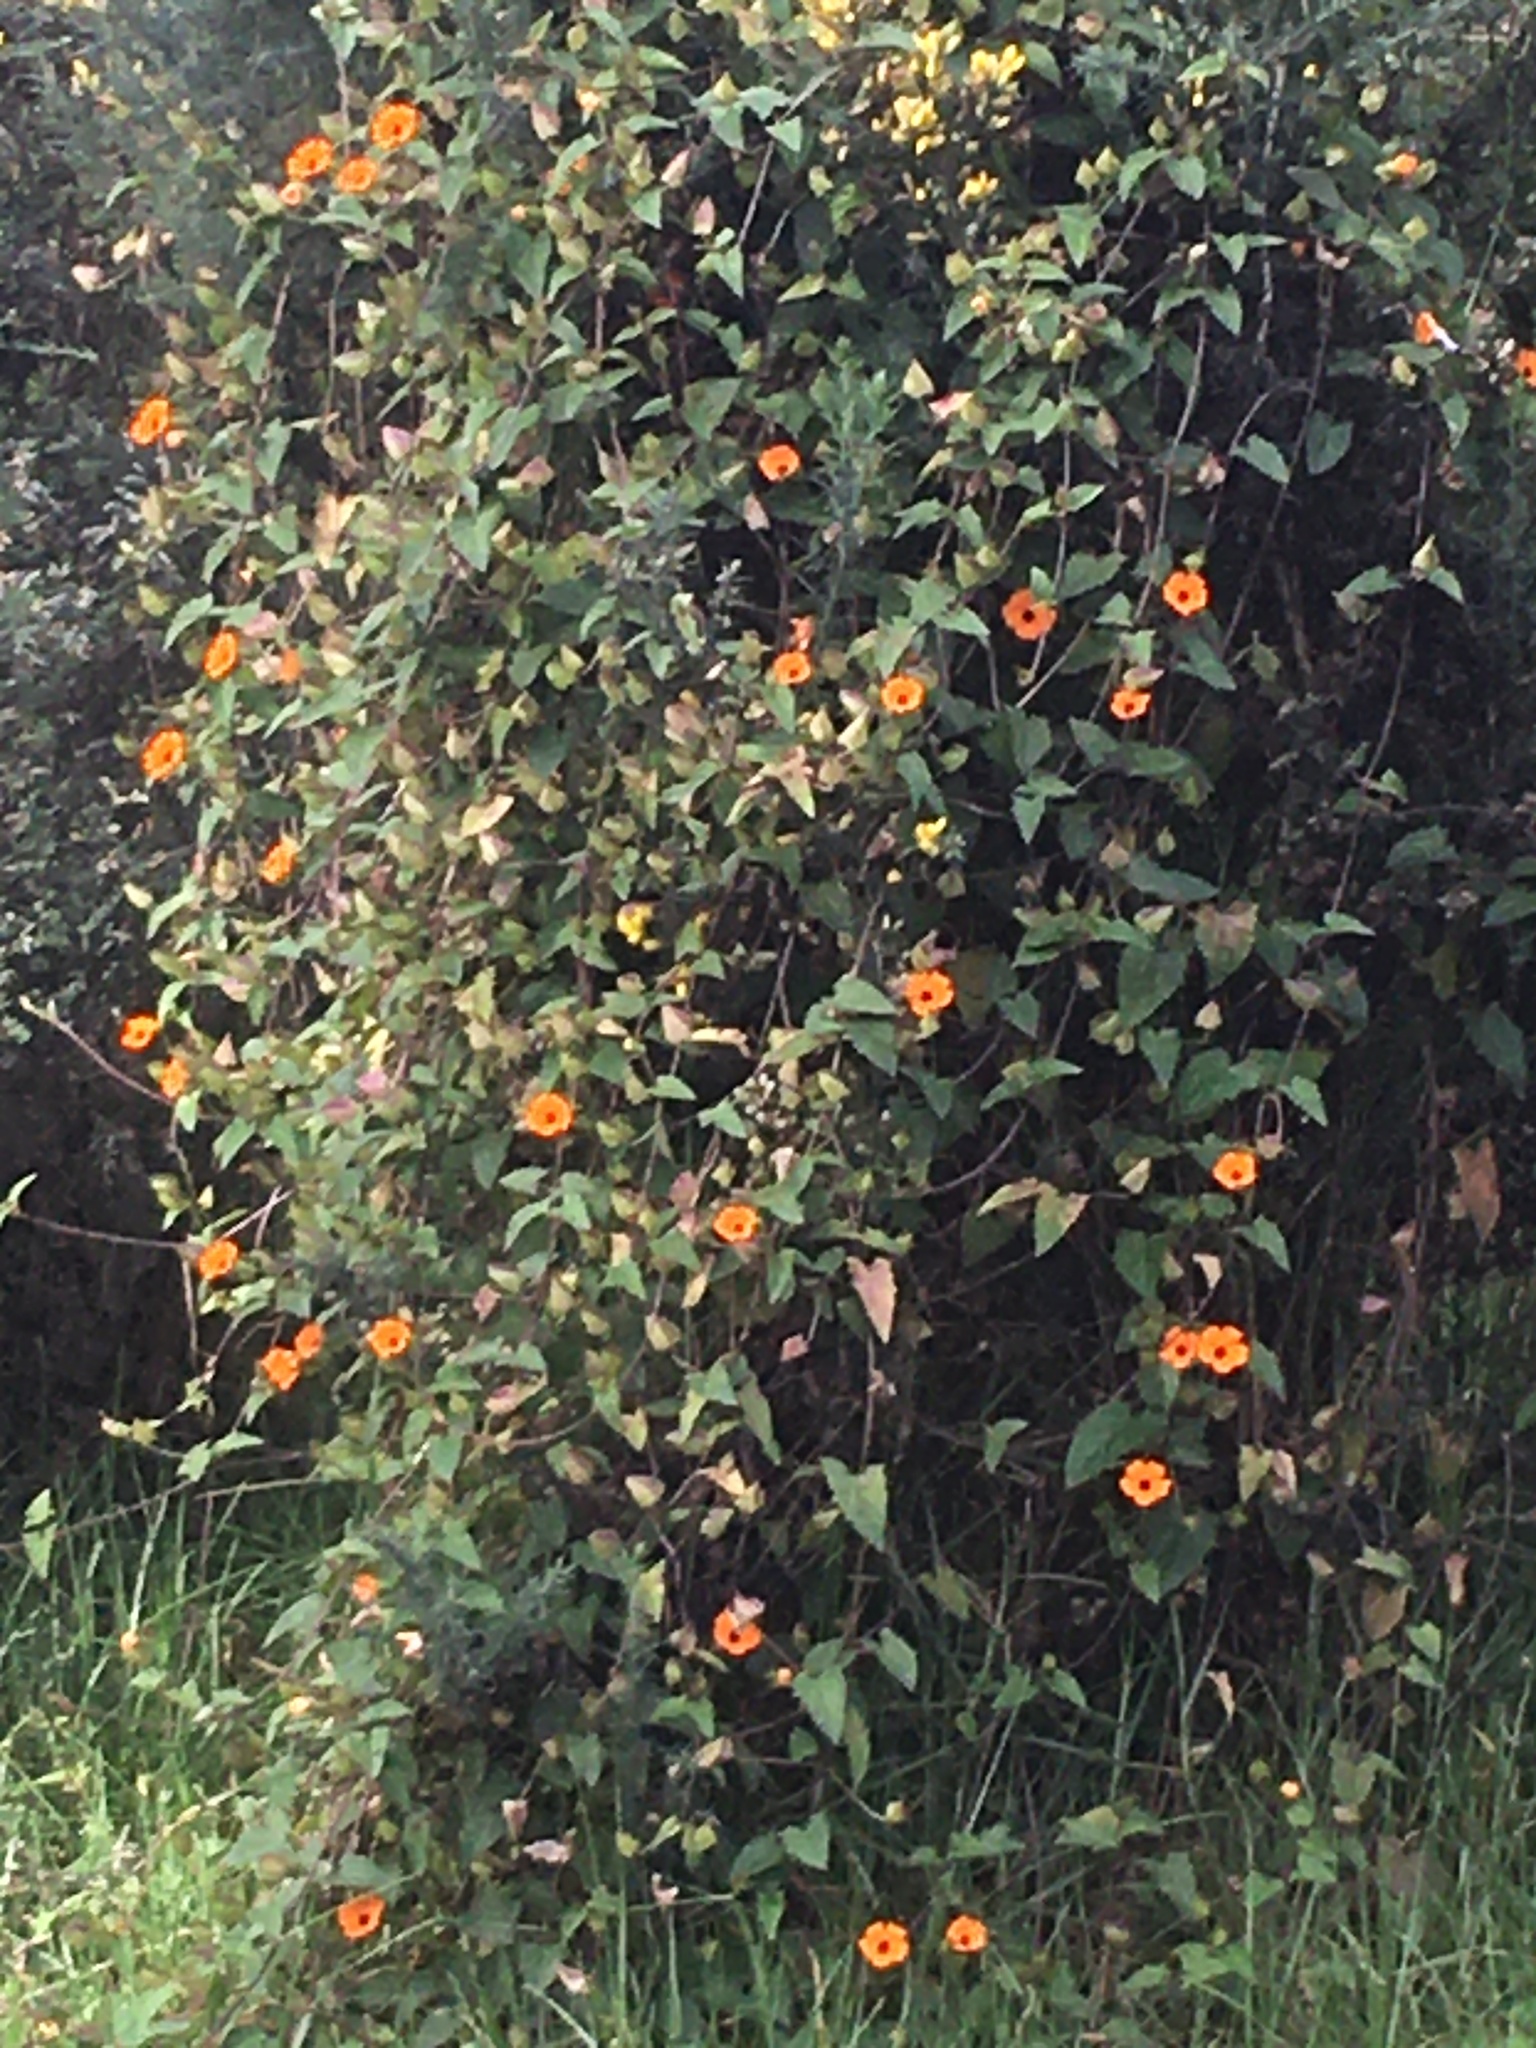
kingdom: Plantae
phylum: Tracheophyta
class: Magnoliopsida
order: Lamiales
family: Acanthaceae
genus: Thunbergia
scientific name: Thunbergia alata
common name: Blackeyed susan vine
